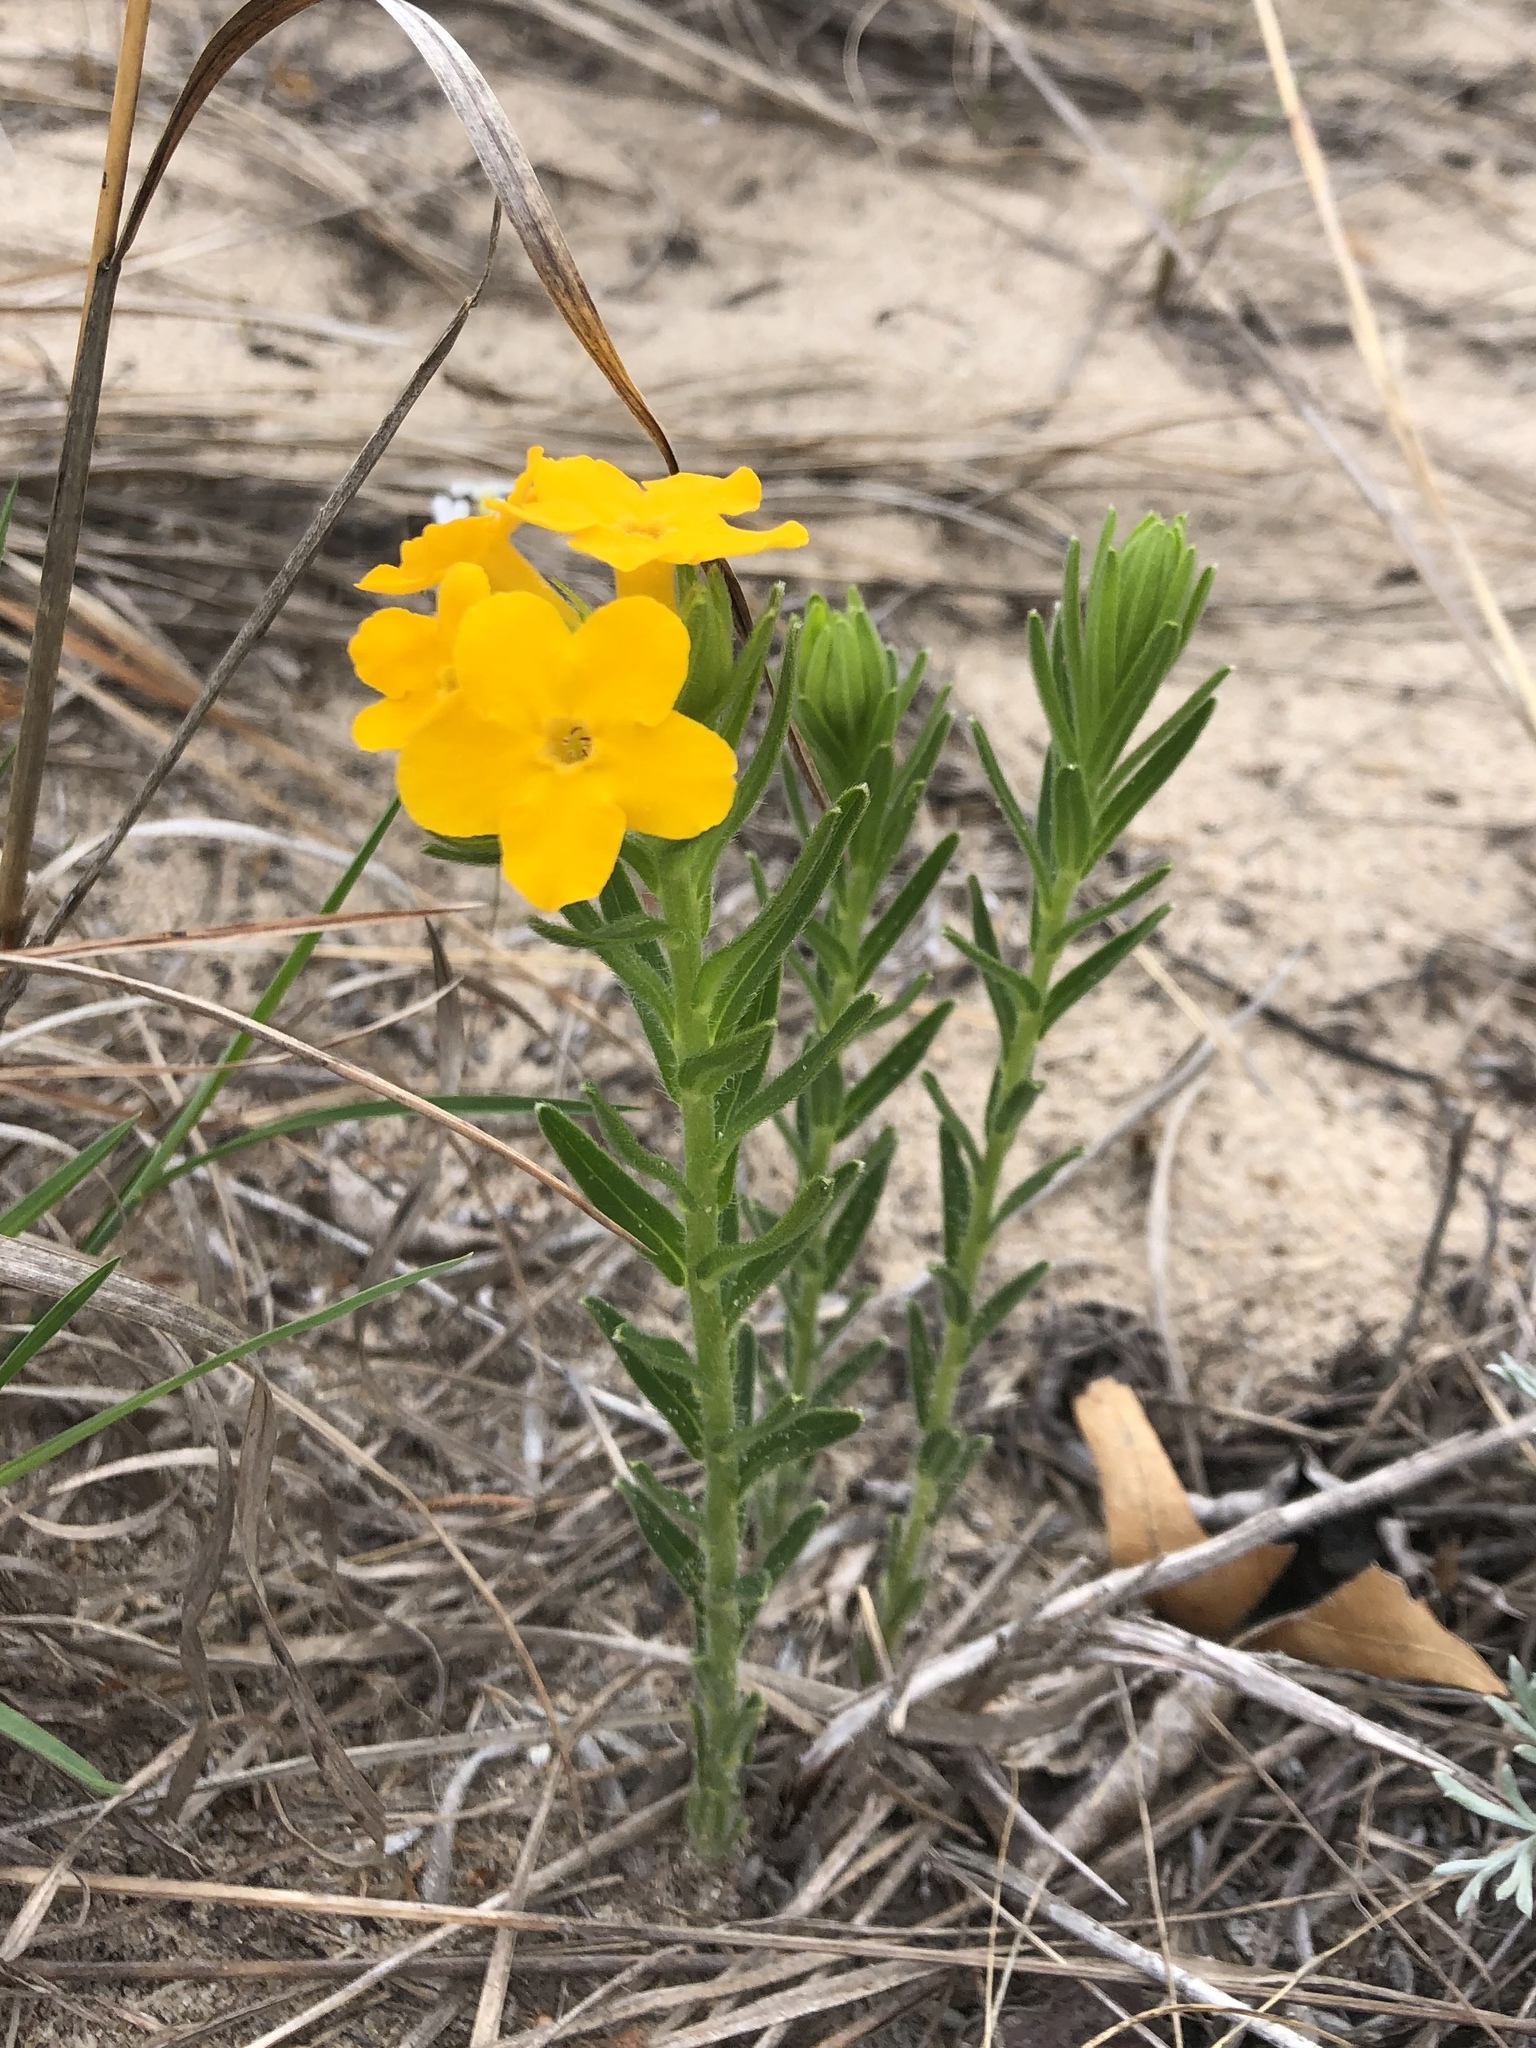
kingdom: Plantae
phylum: Tracheophyta
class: Magnoliopsida
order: Boraginales
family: Boraginaceae
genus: Lithospermum
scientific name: Lithospermum caroliniense
